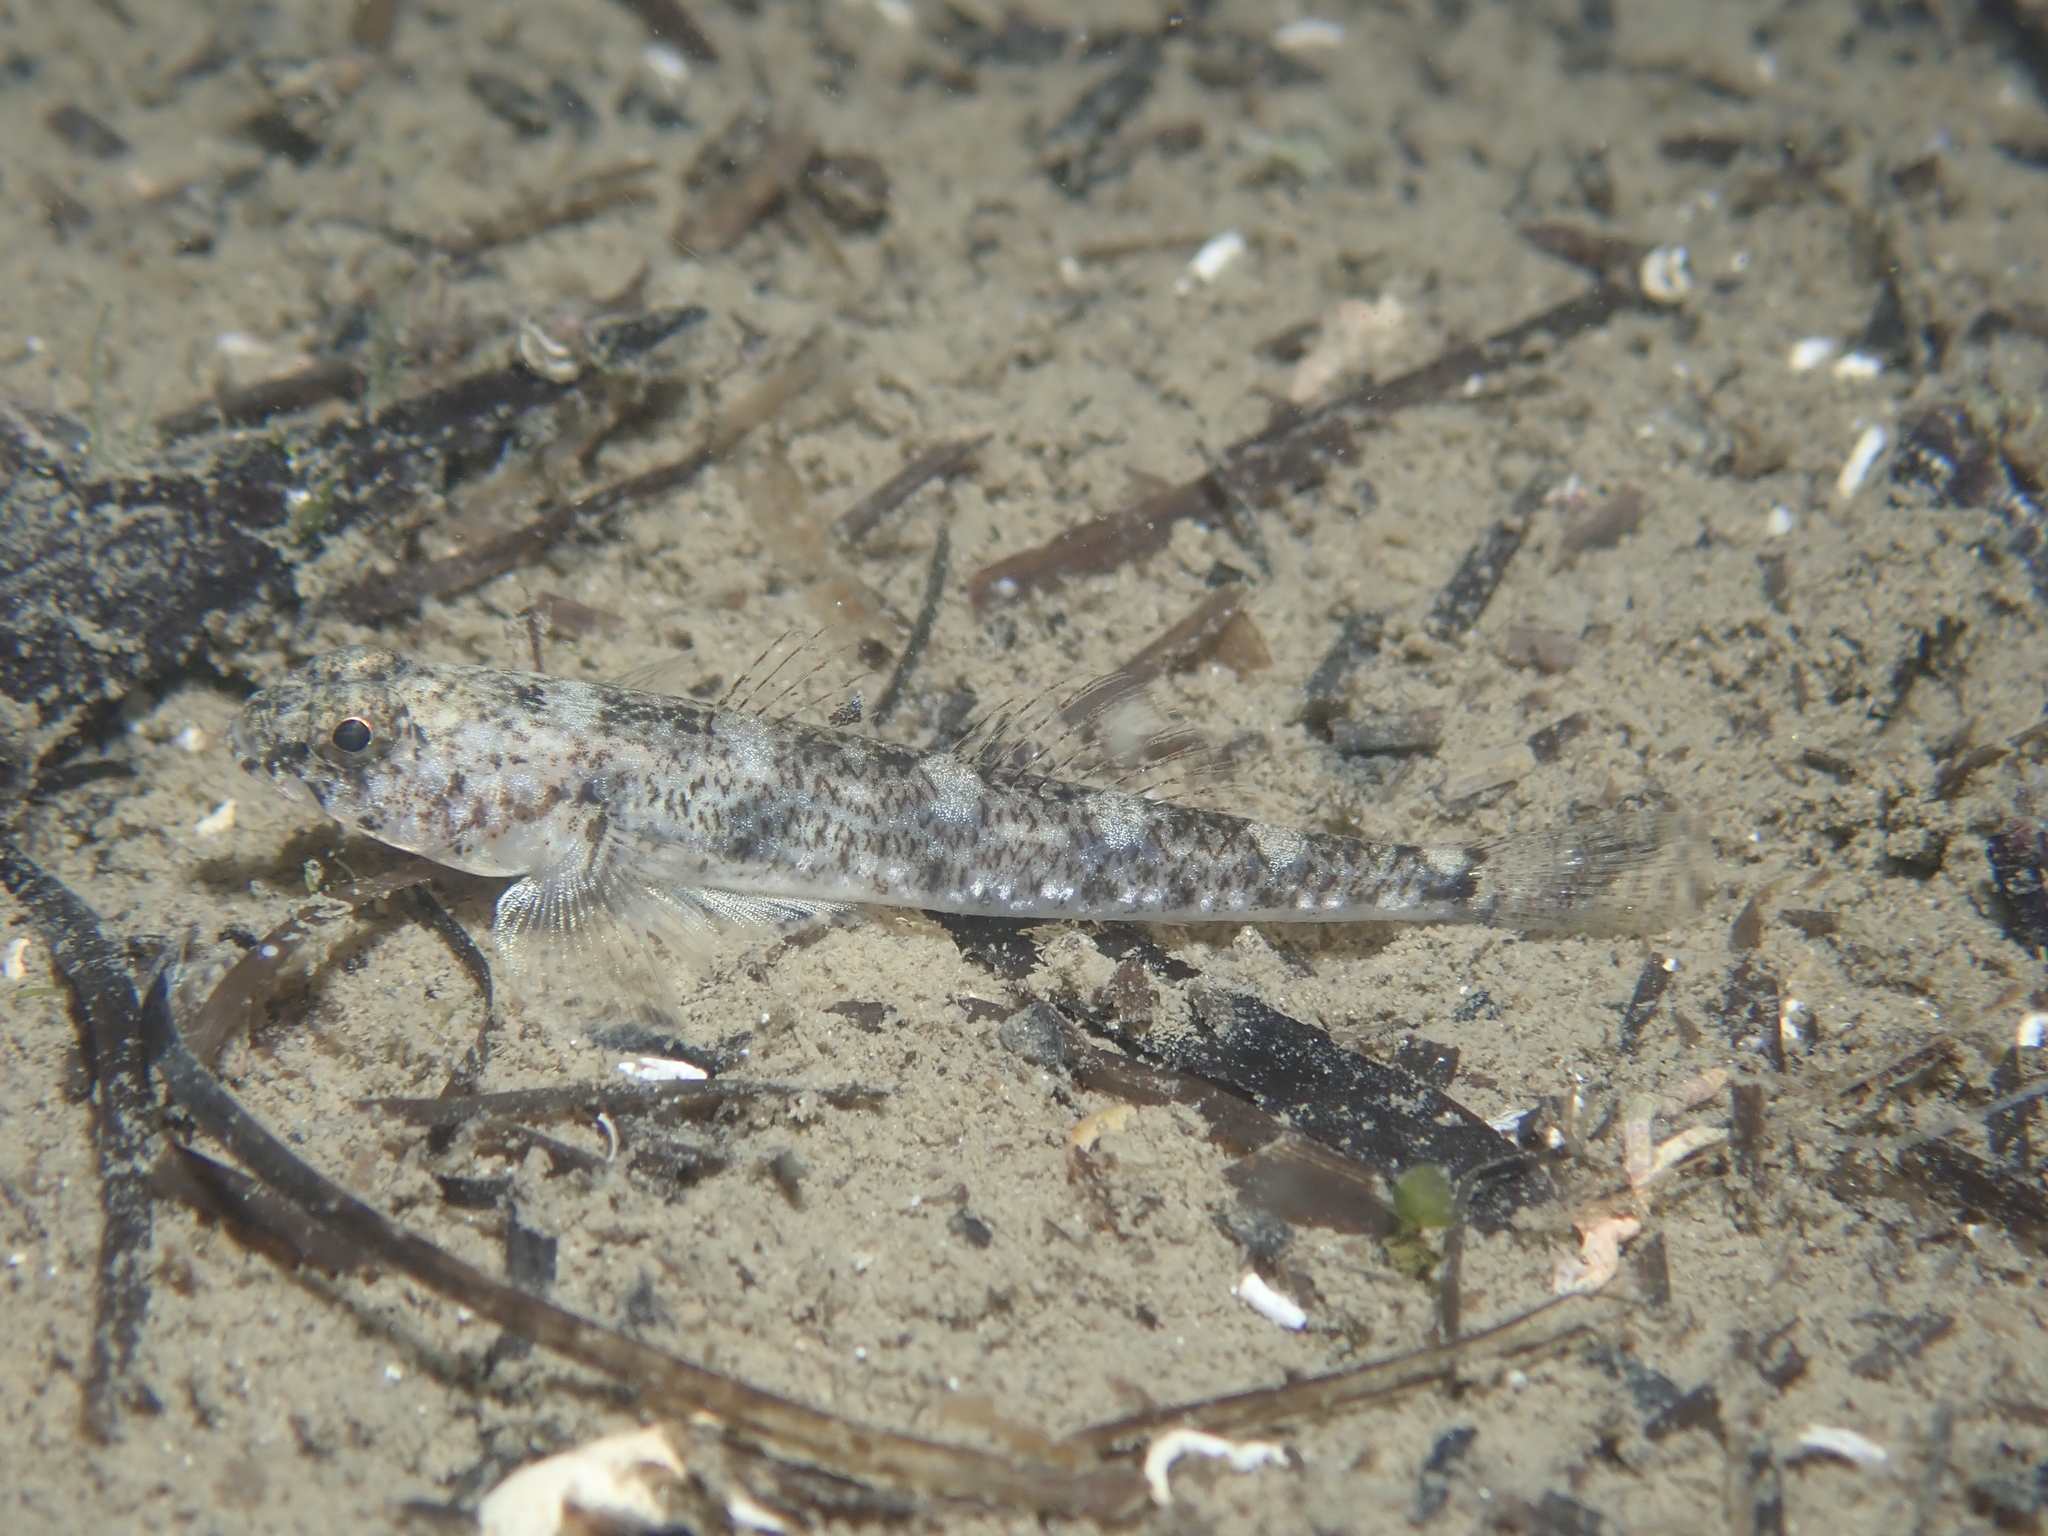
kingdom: Animalia
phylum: Chordata
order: Perciformes
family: Gobiidae
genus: Pomatoschistus
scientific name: Pomatoschistus marmoratus
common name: Marbled goby
